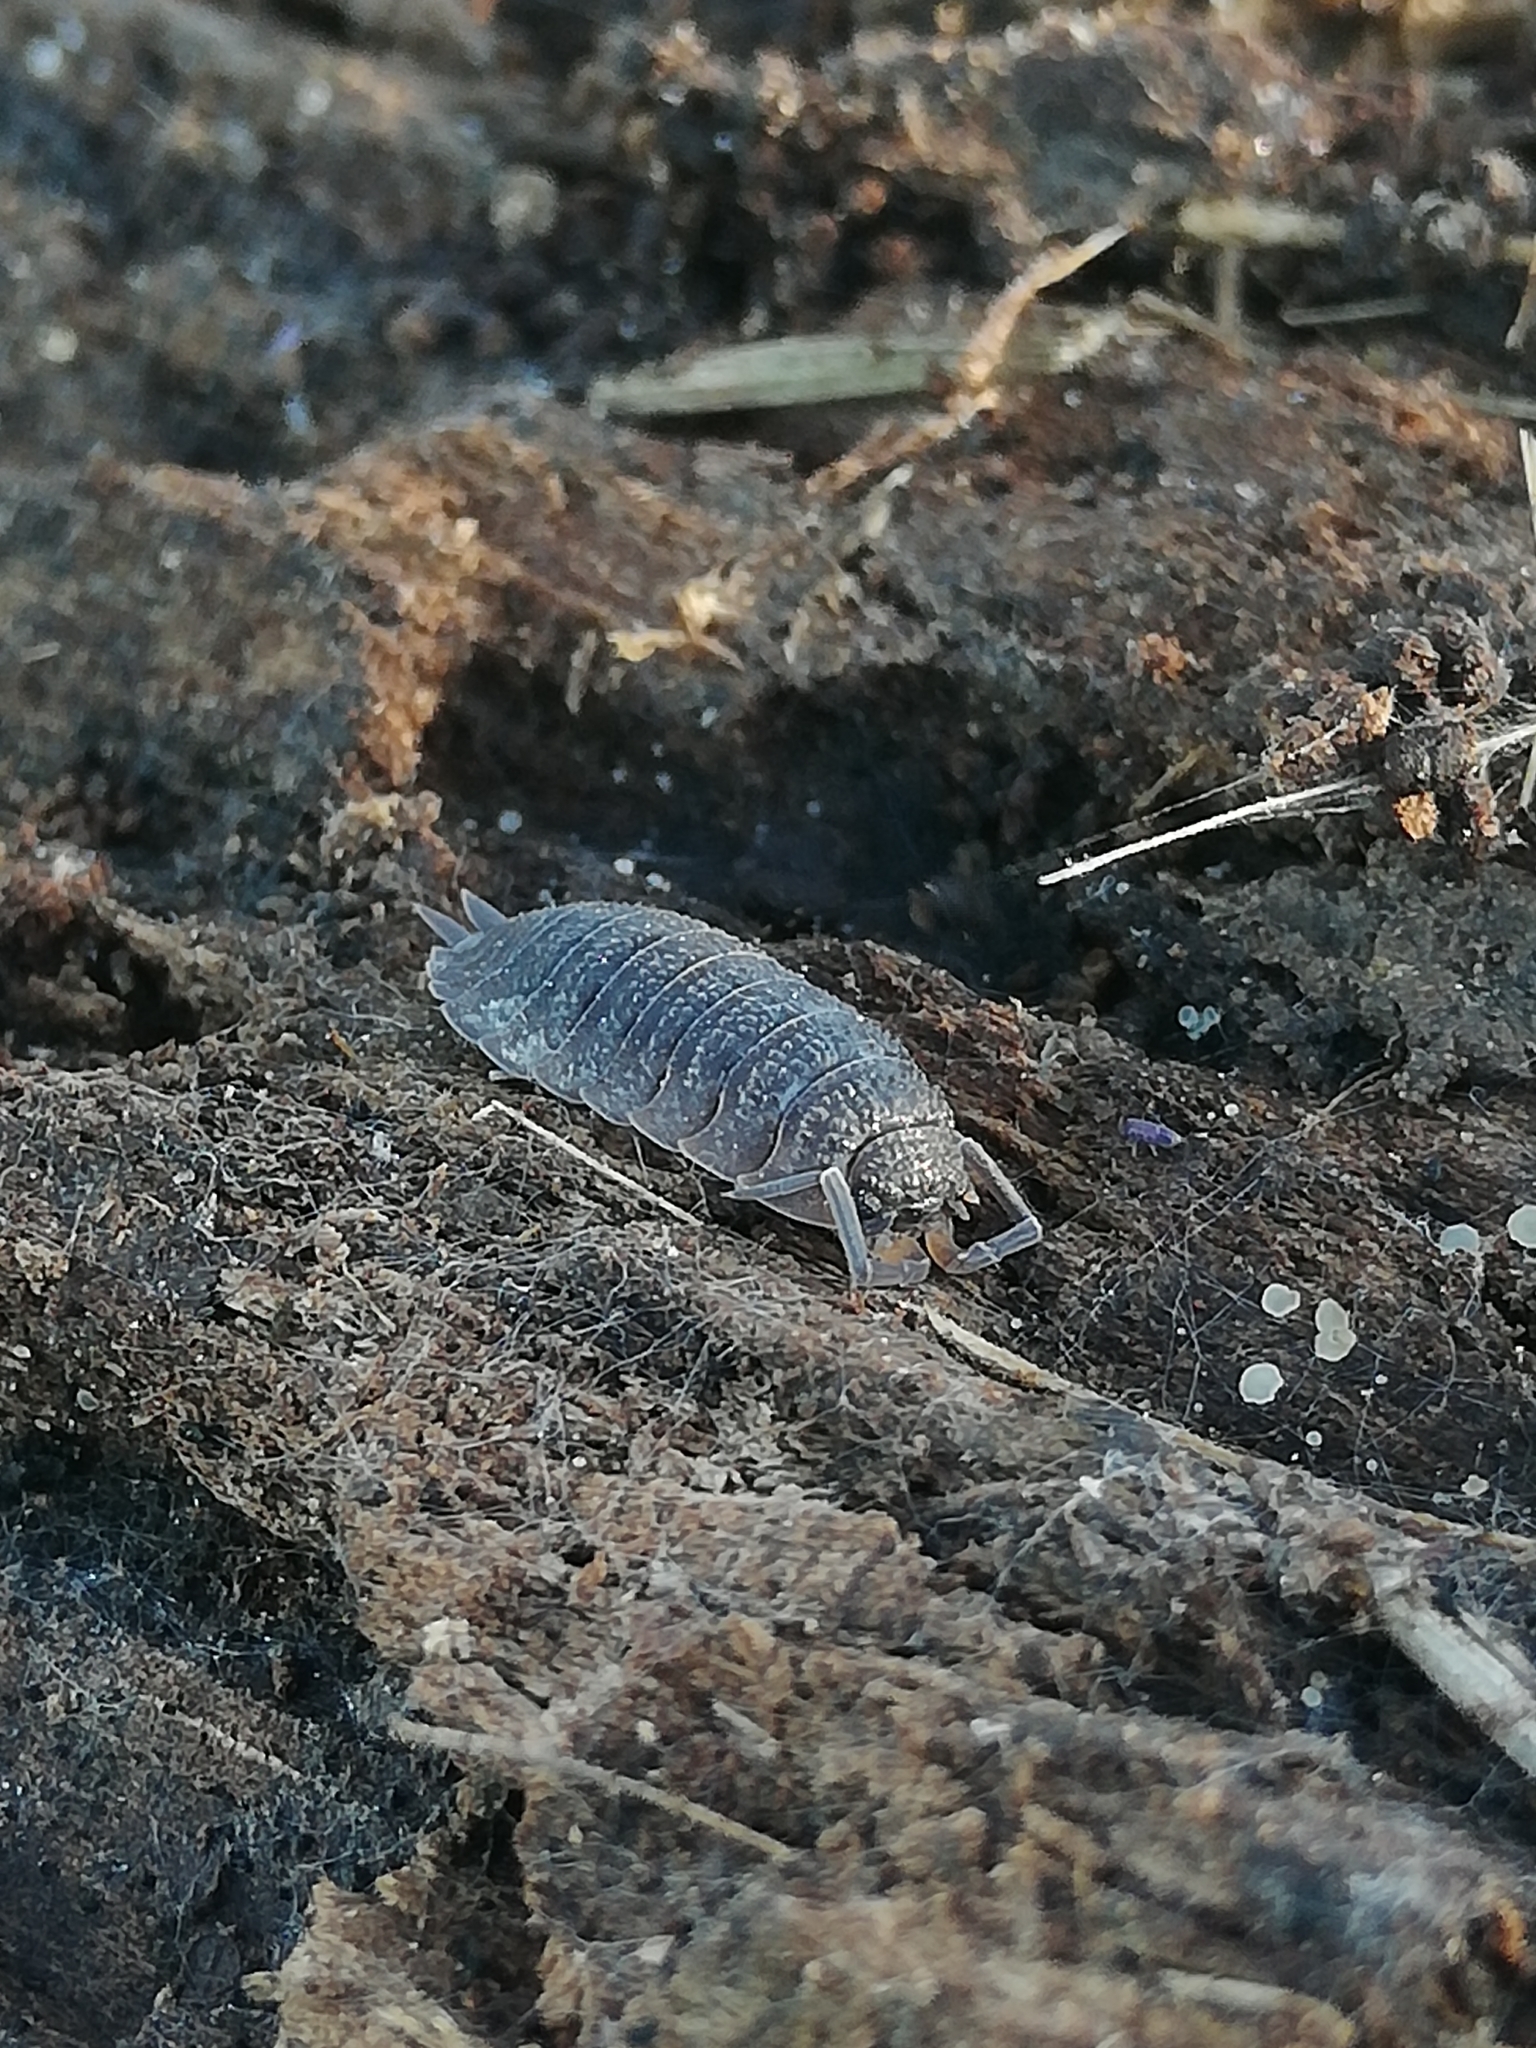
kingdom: Animalia
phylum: Arthropoda
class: Malacostraca
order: Isopoda
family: Porcellionidae
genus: Porcellio
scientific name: Porcellio scaber
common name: Common rough woodlouse
